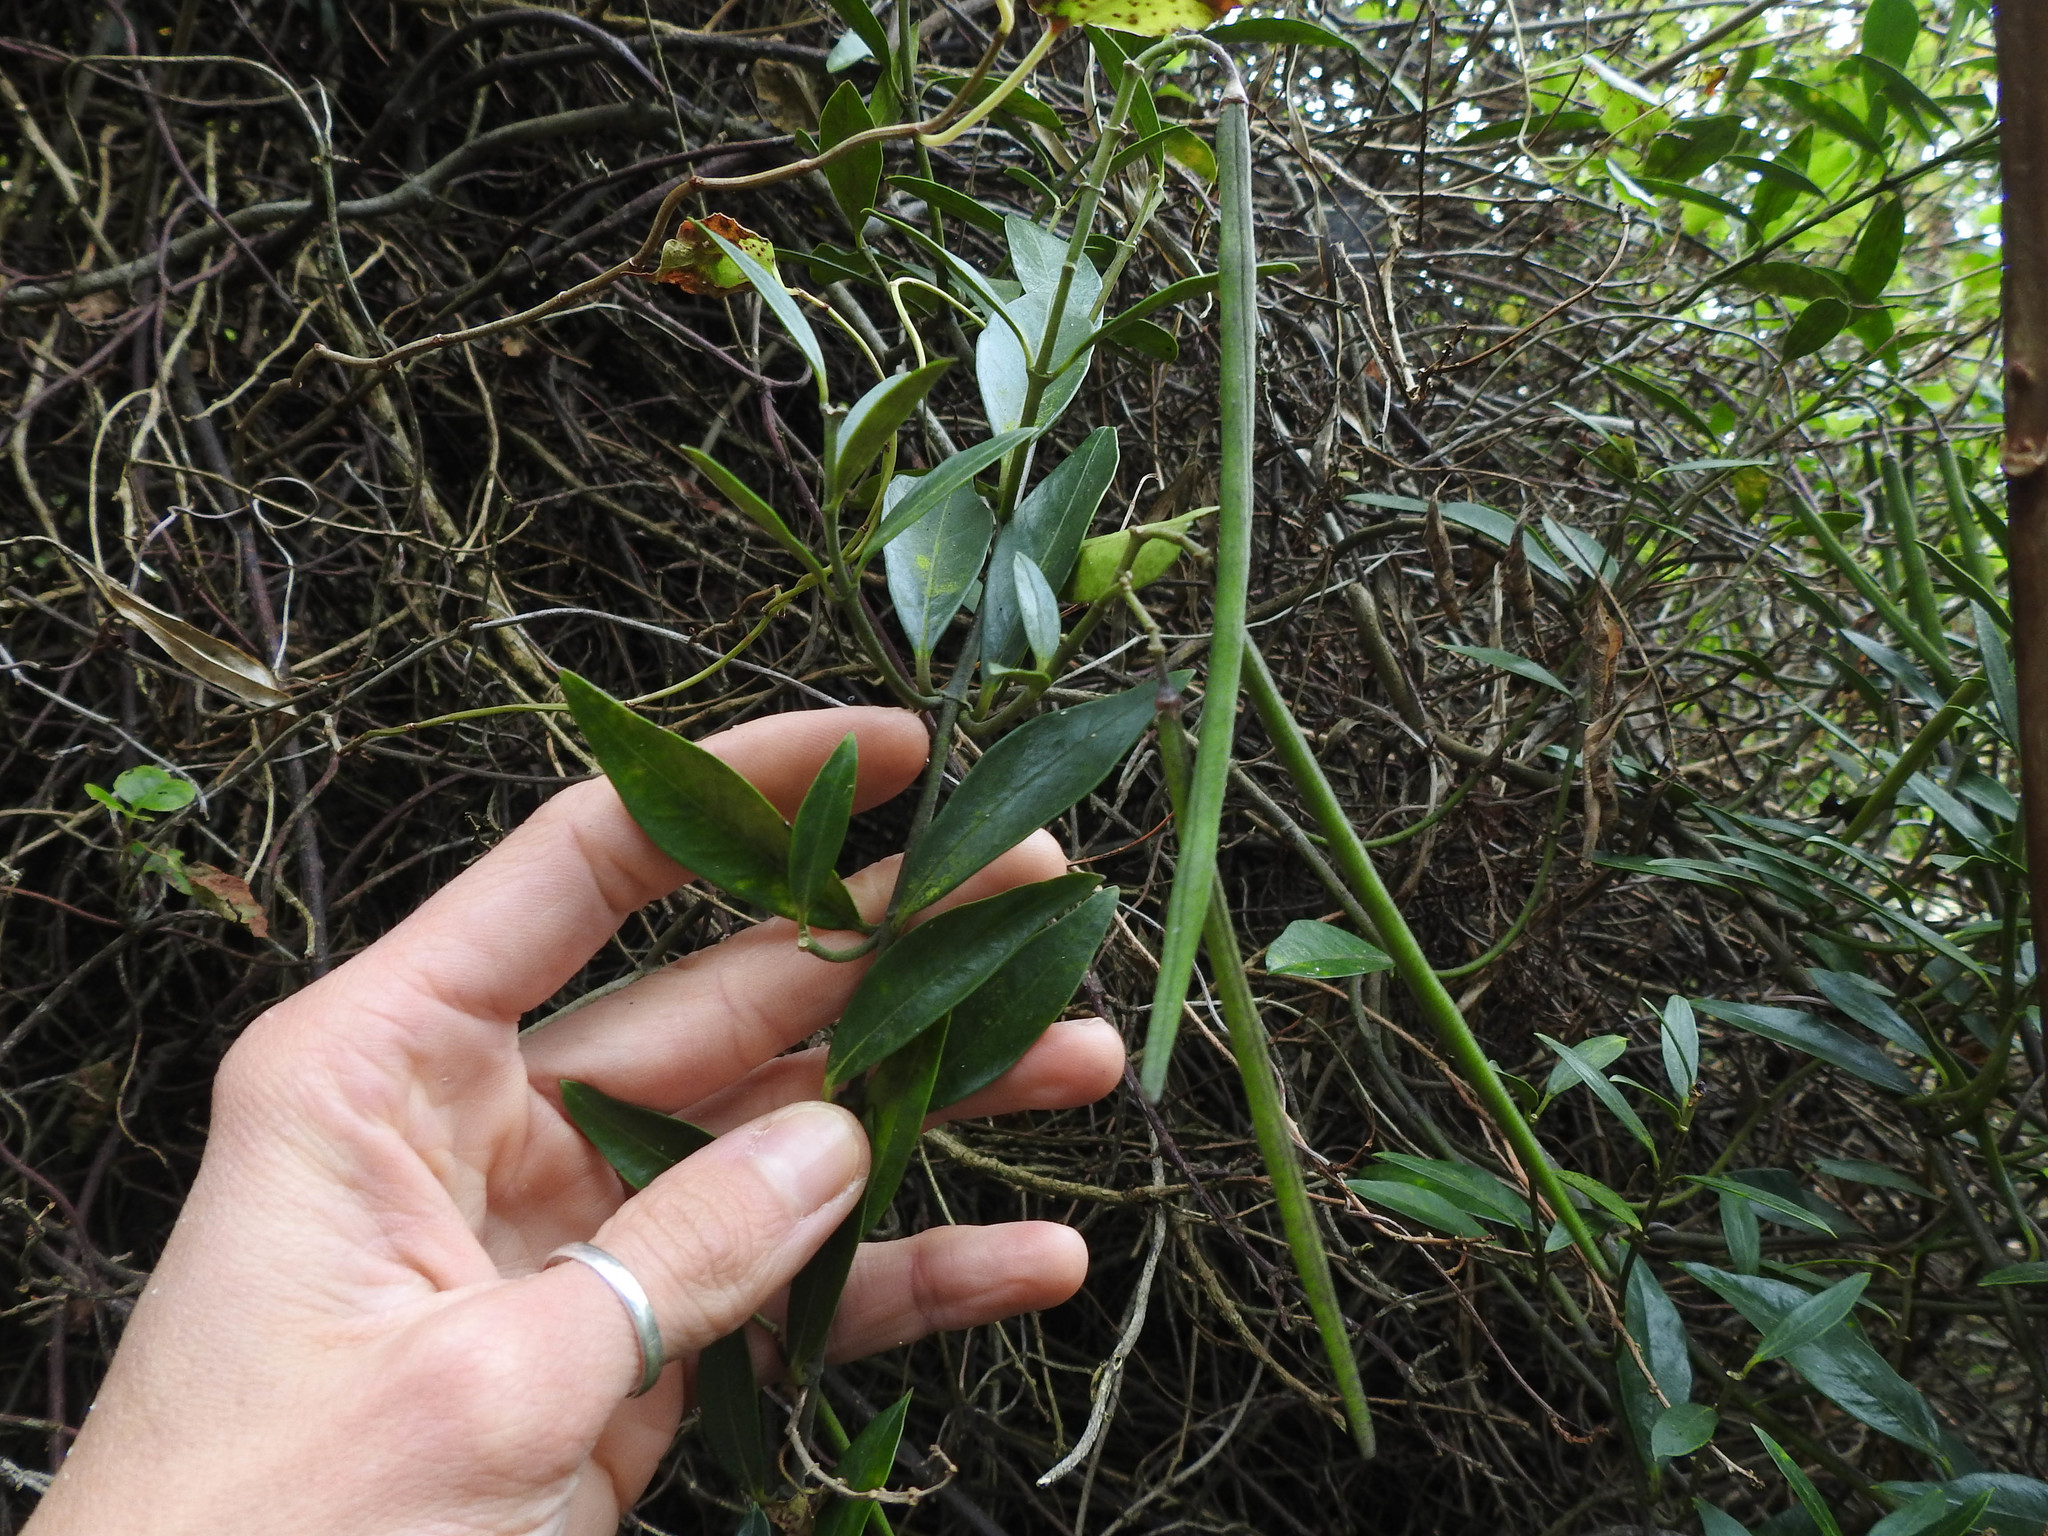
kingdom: Plantae
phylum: Tracheophyta
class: Magnoliopsida
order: Gentianales
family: Apocynaceae
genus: Parsonsia
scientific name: Parsonsia heterophylla
